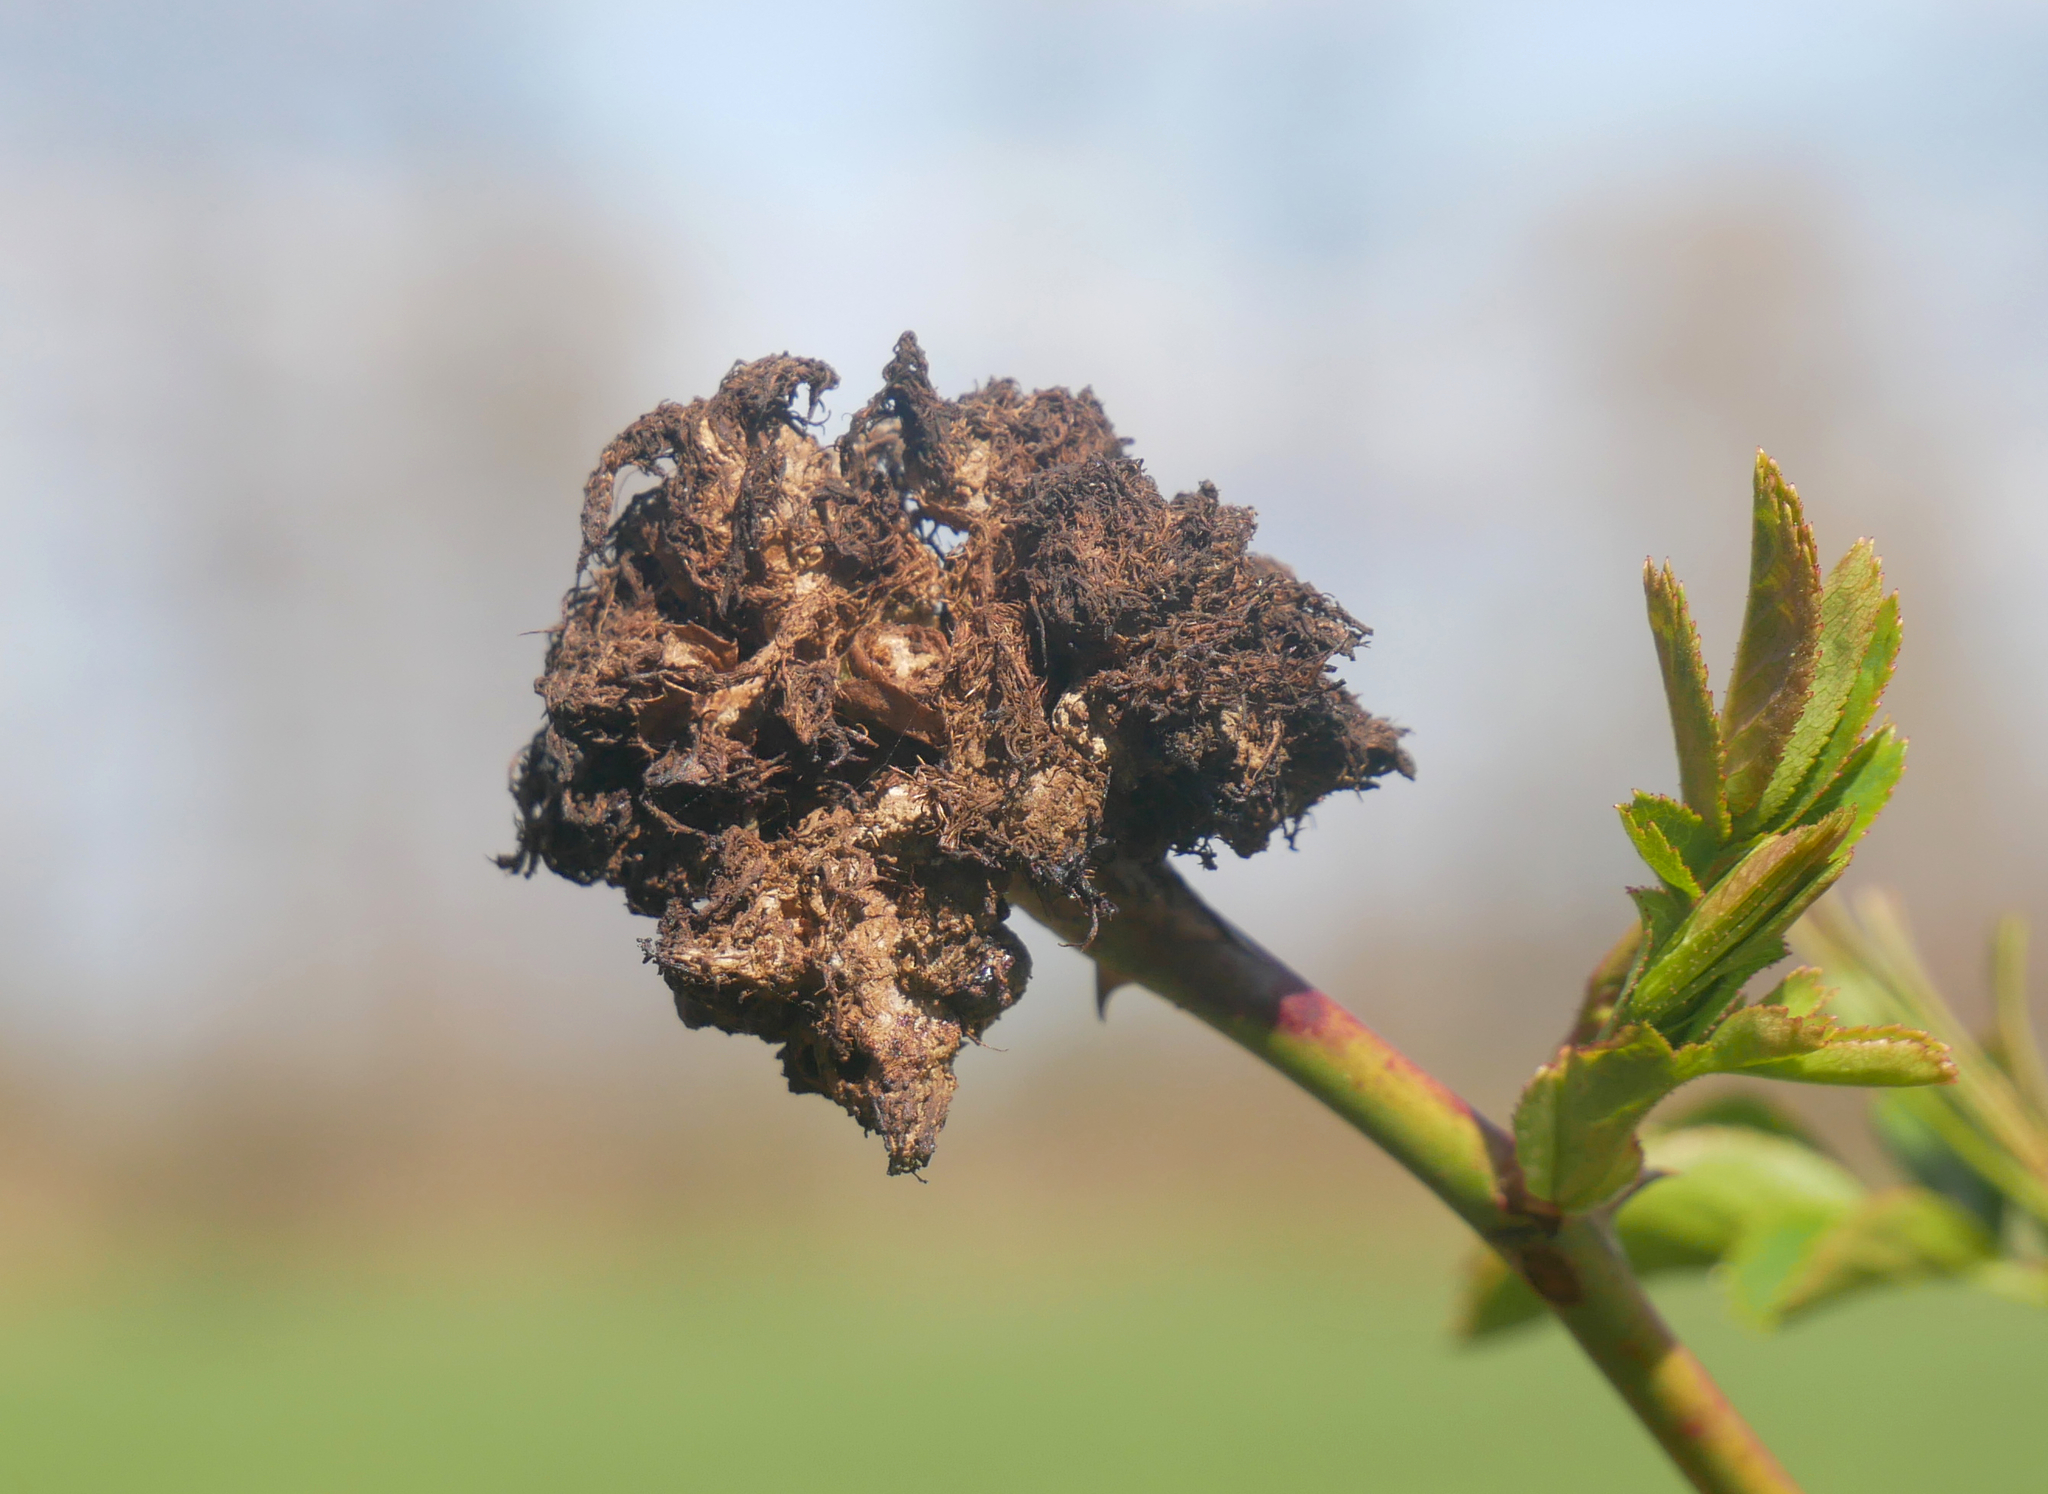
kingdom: Animalia
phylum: Arthropoda
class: Insecta
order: Hymenoptera
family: Cynipidae
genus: Diplolepis
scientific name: Diplolepis rosae
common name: Bedeguar gall
